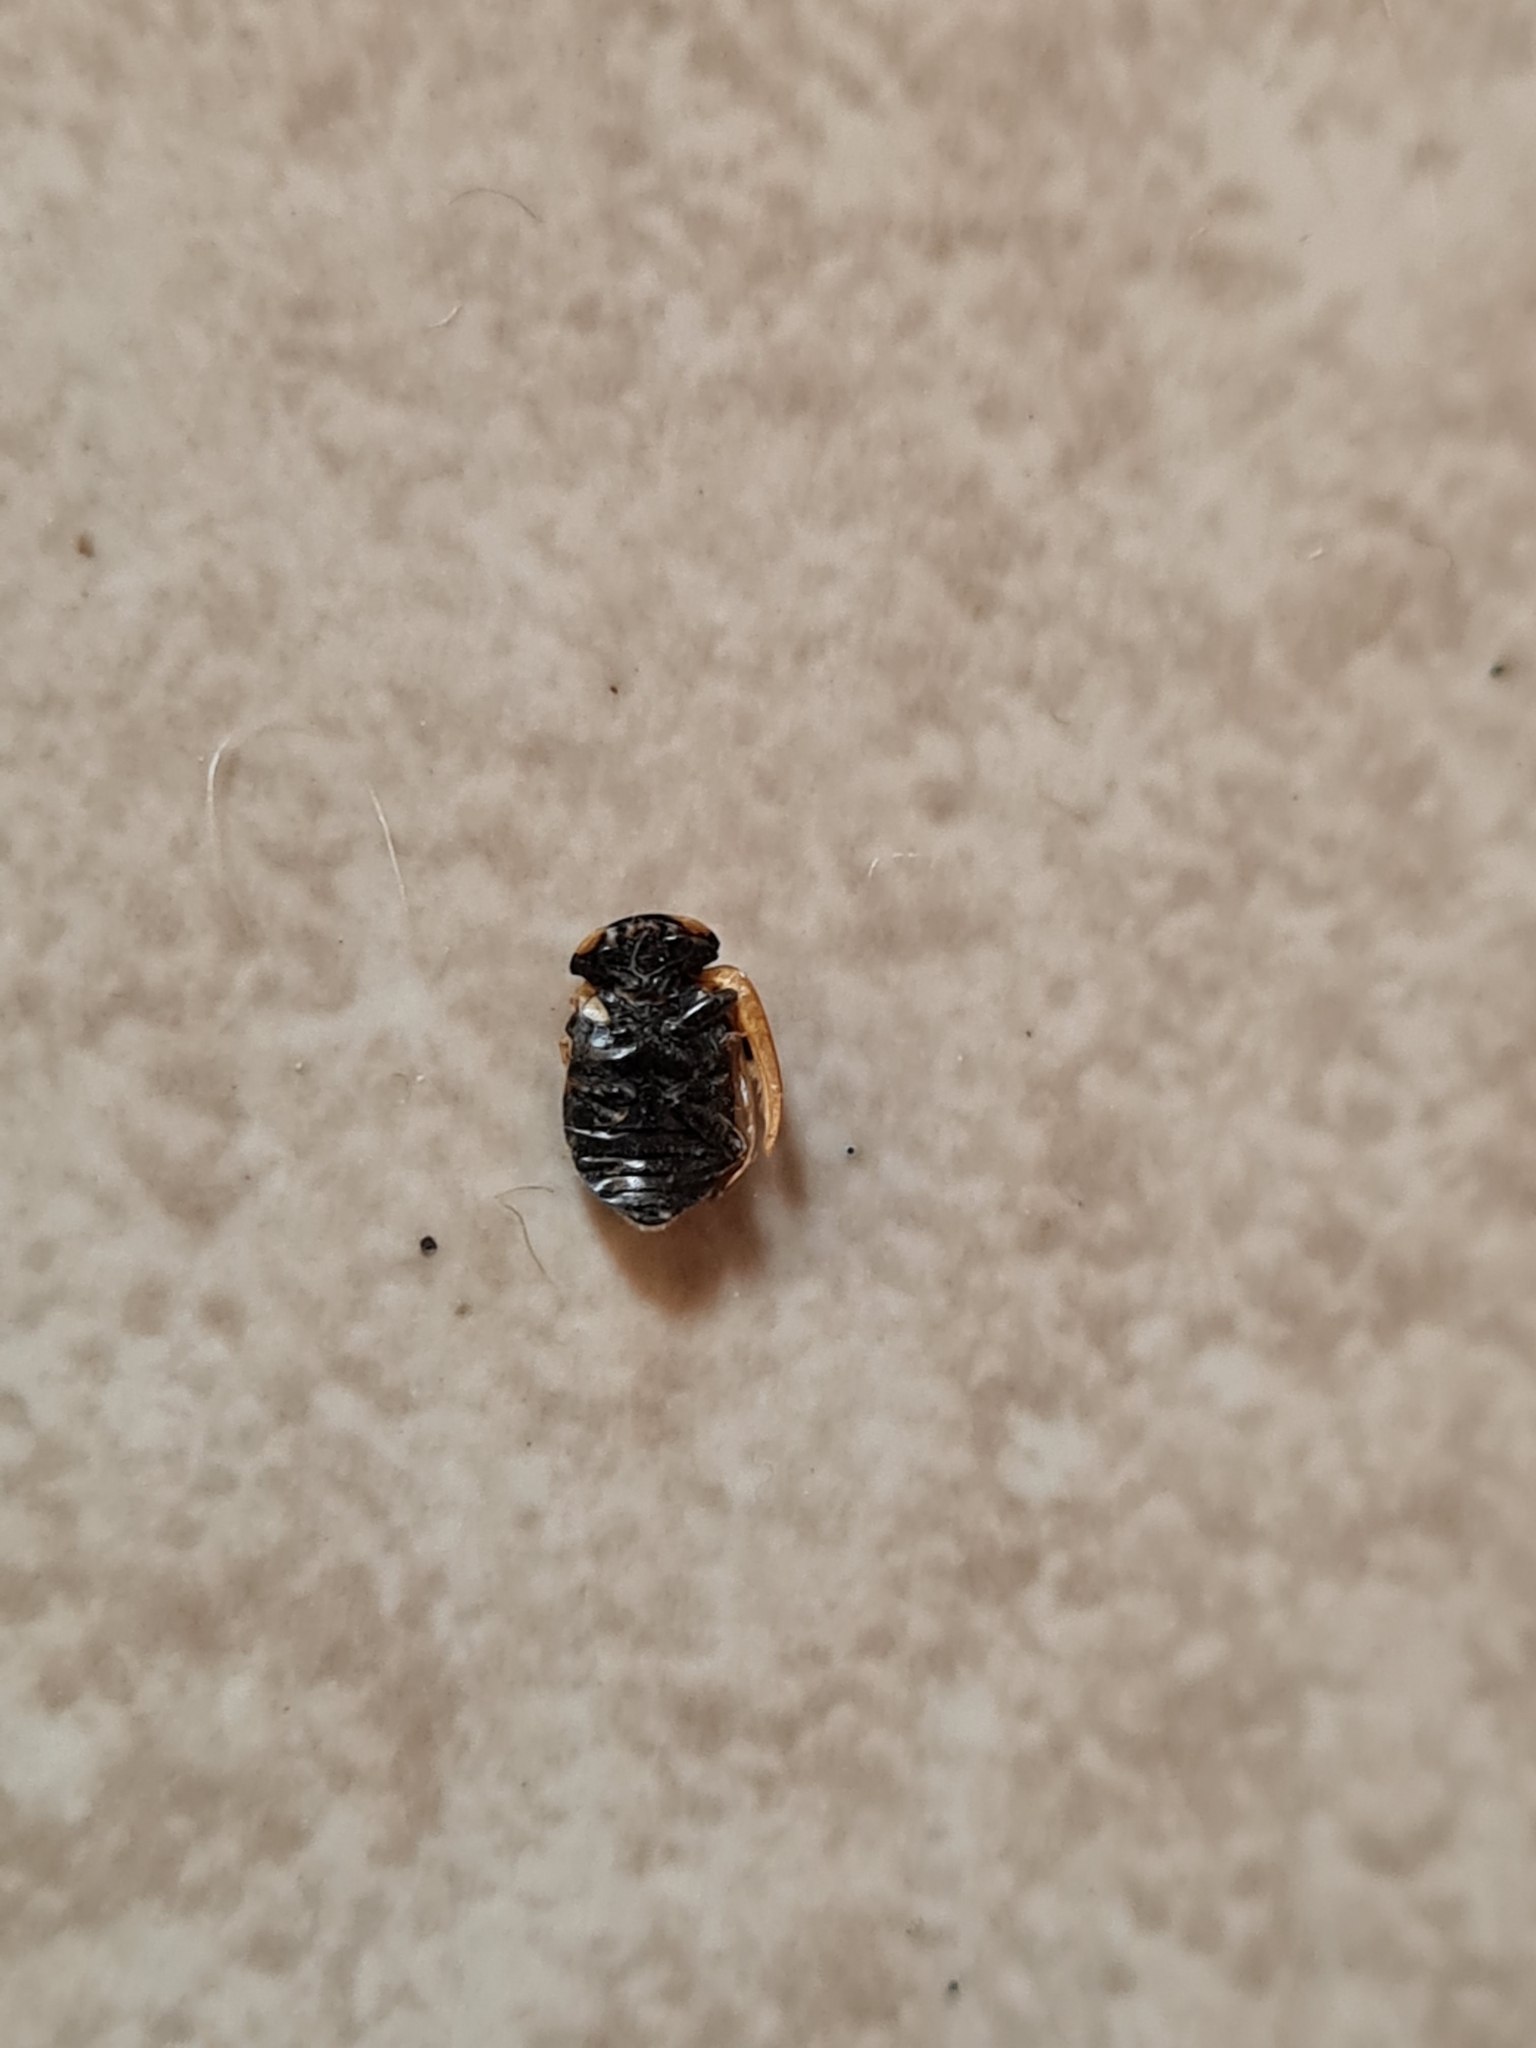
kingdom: Animalia
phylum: Arthropoda
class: Insecta
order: Coleoptera
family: Coccinellidae
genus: Coccinella
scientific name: Coccinella undecimpunctata
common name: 11-spot ladybird
